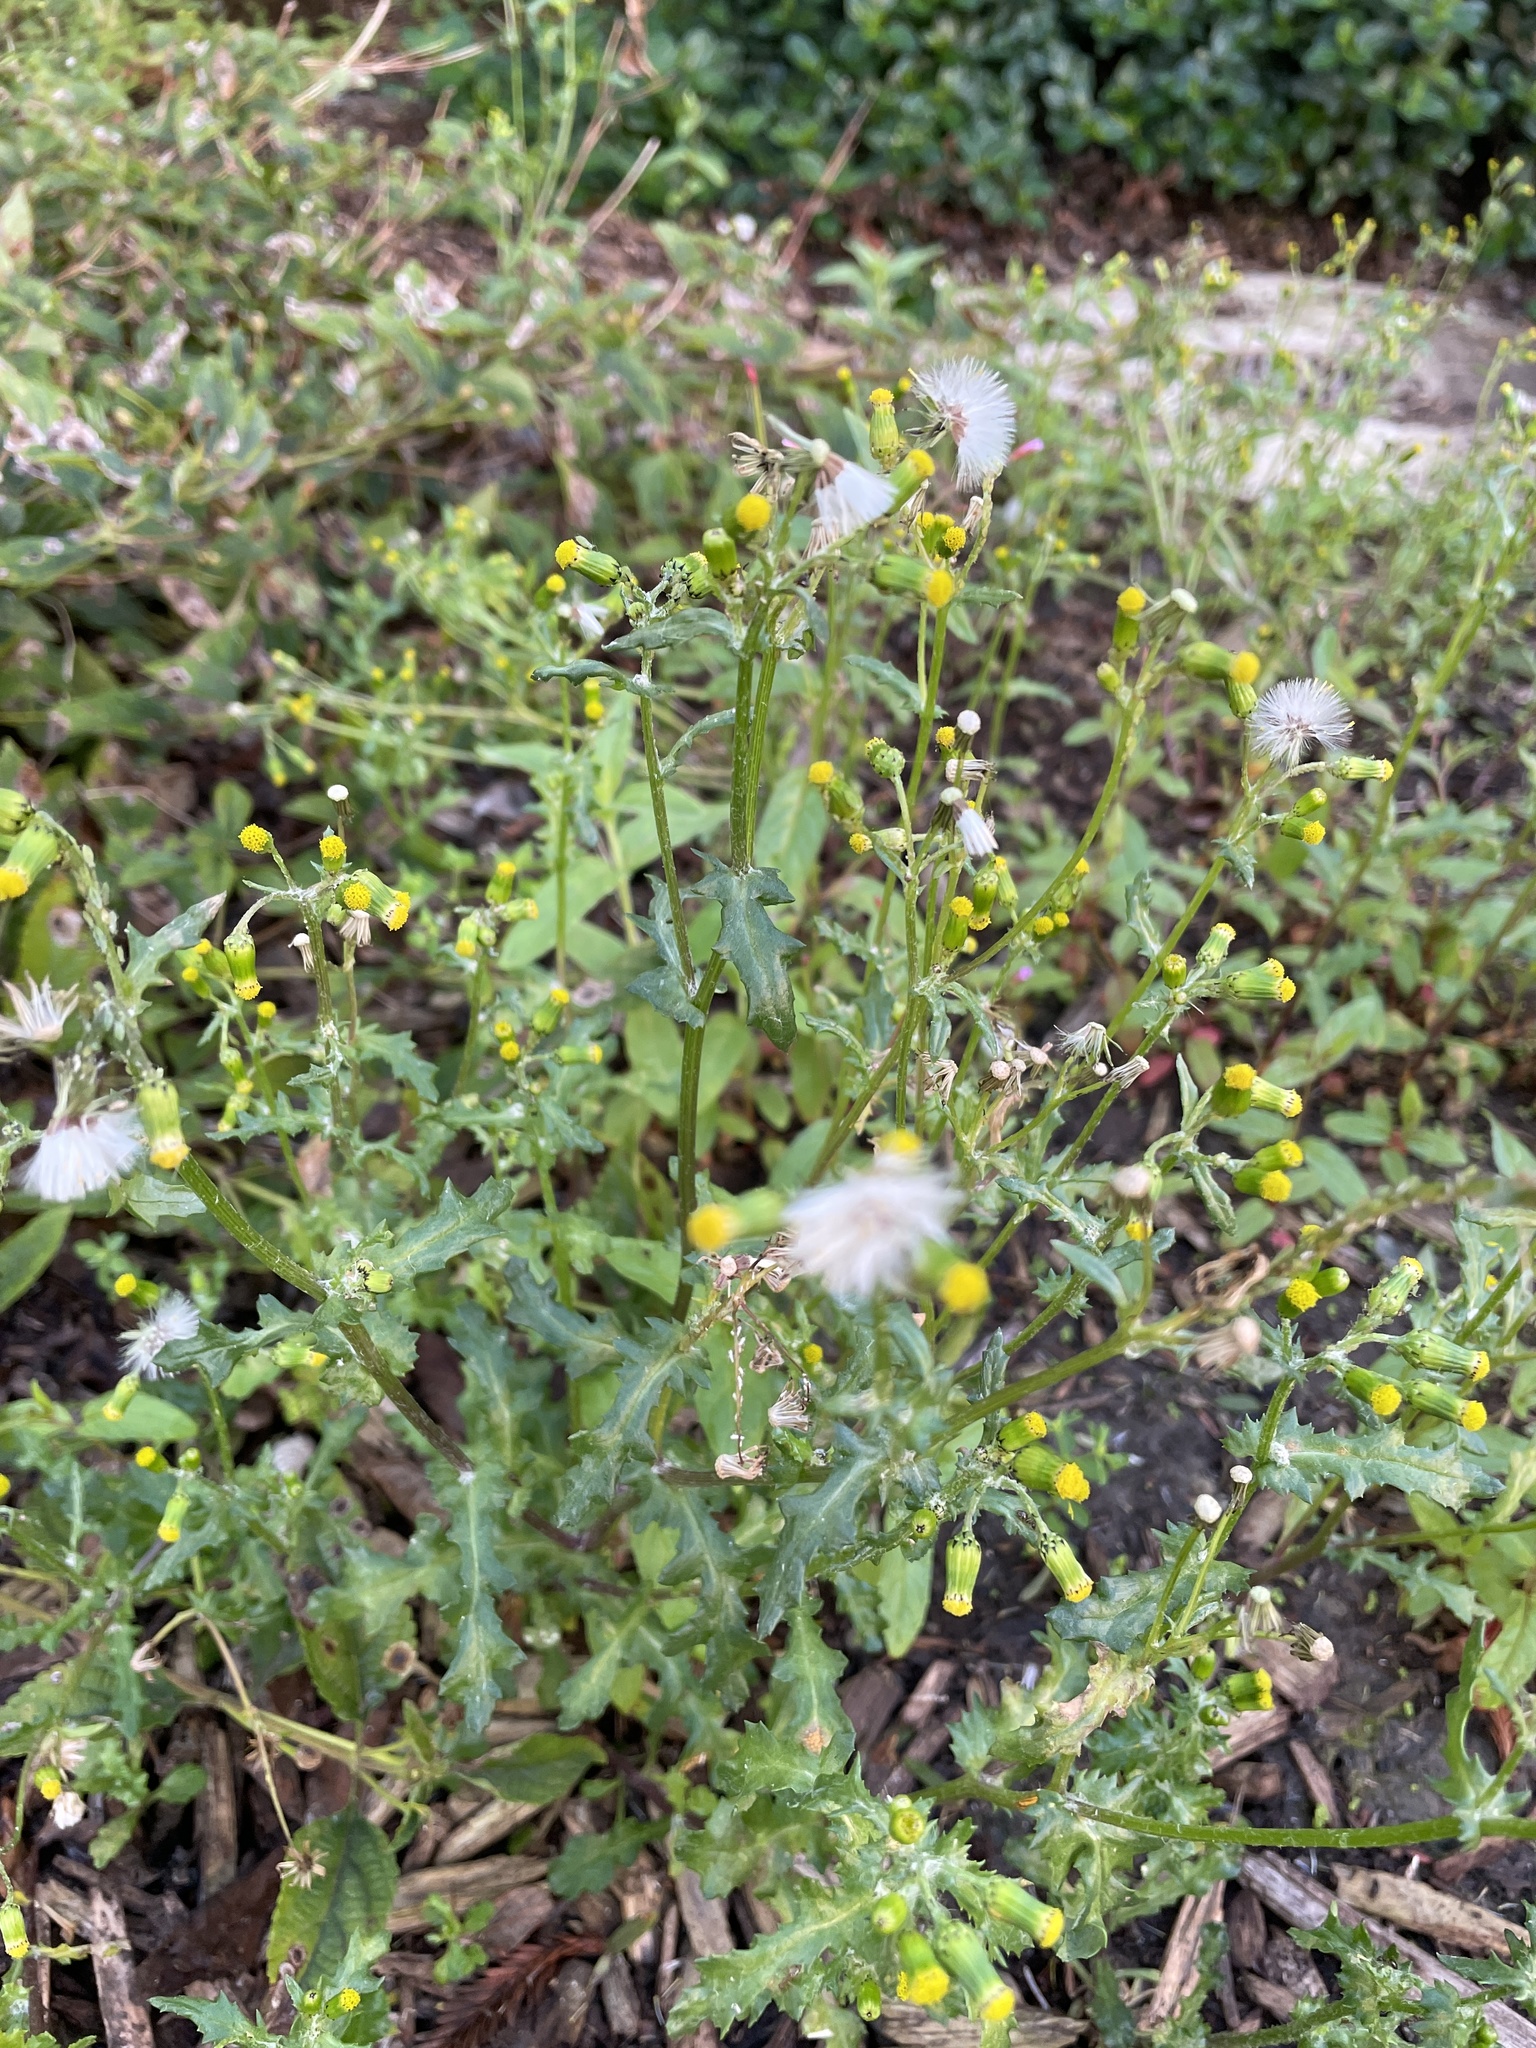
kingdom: Plantae
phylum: Tracheophyta
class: Magnoliopsida
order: Asterales
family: Asteraceae
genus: Senecio
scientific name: Senecio vulgaris
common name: Old-man-in-the-spring
